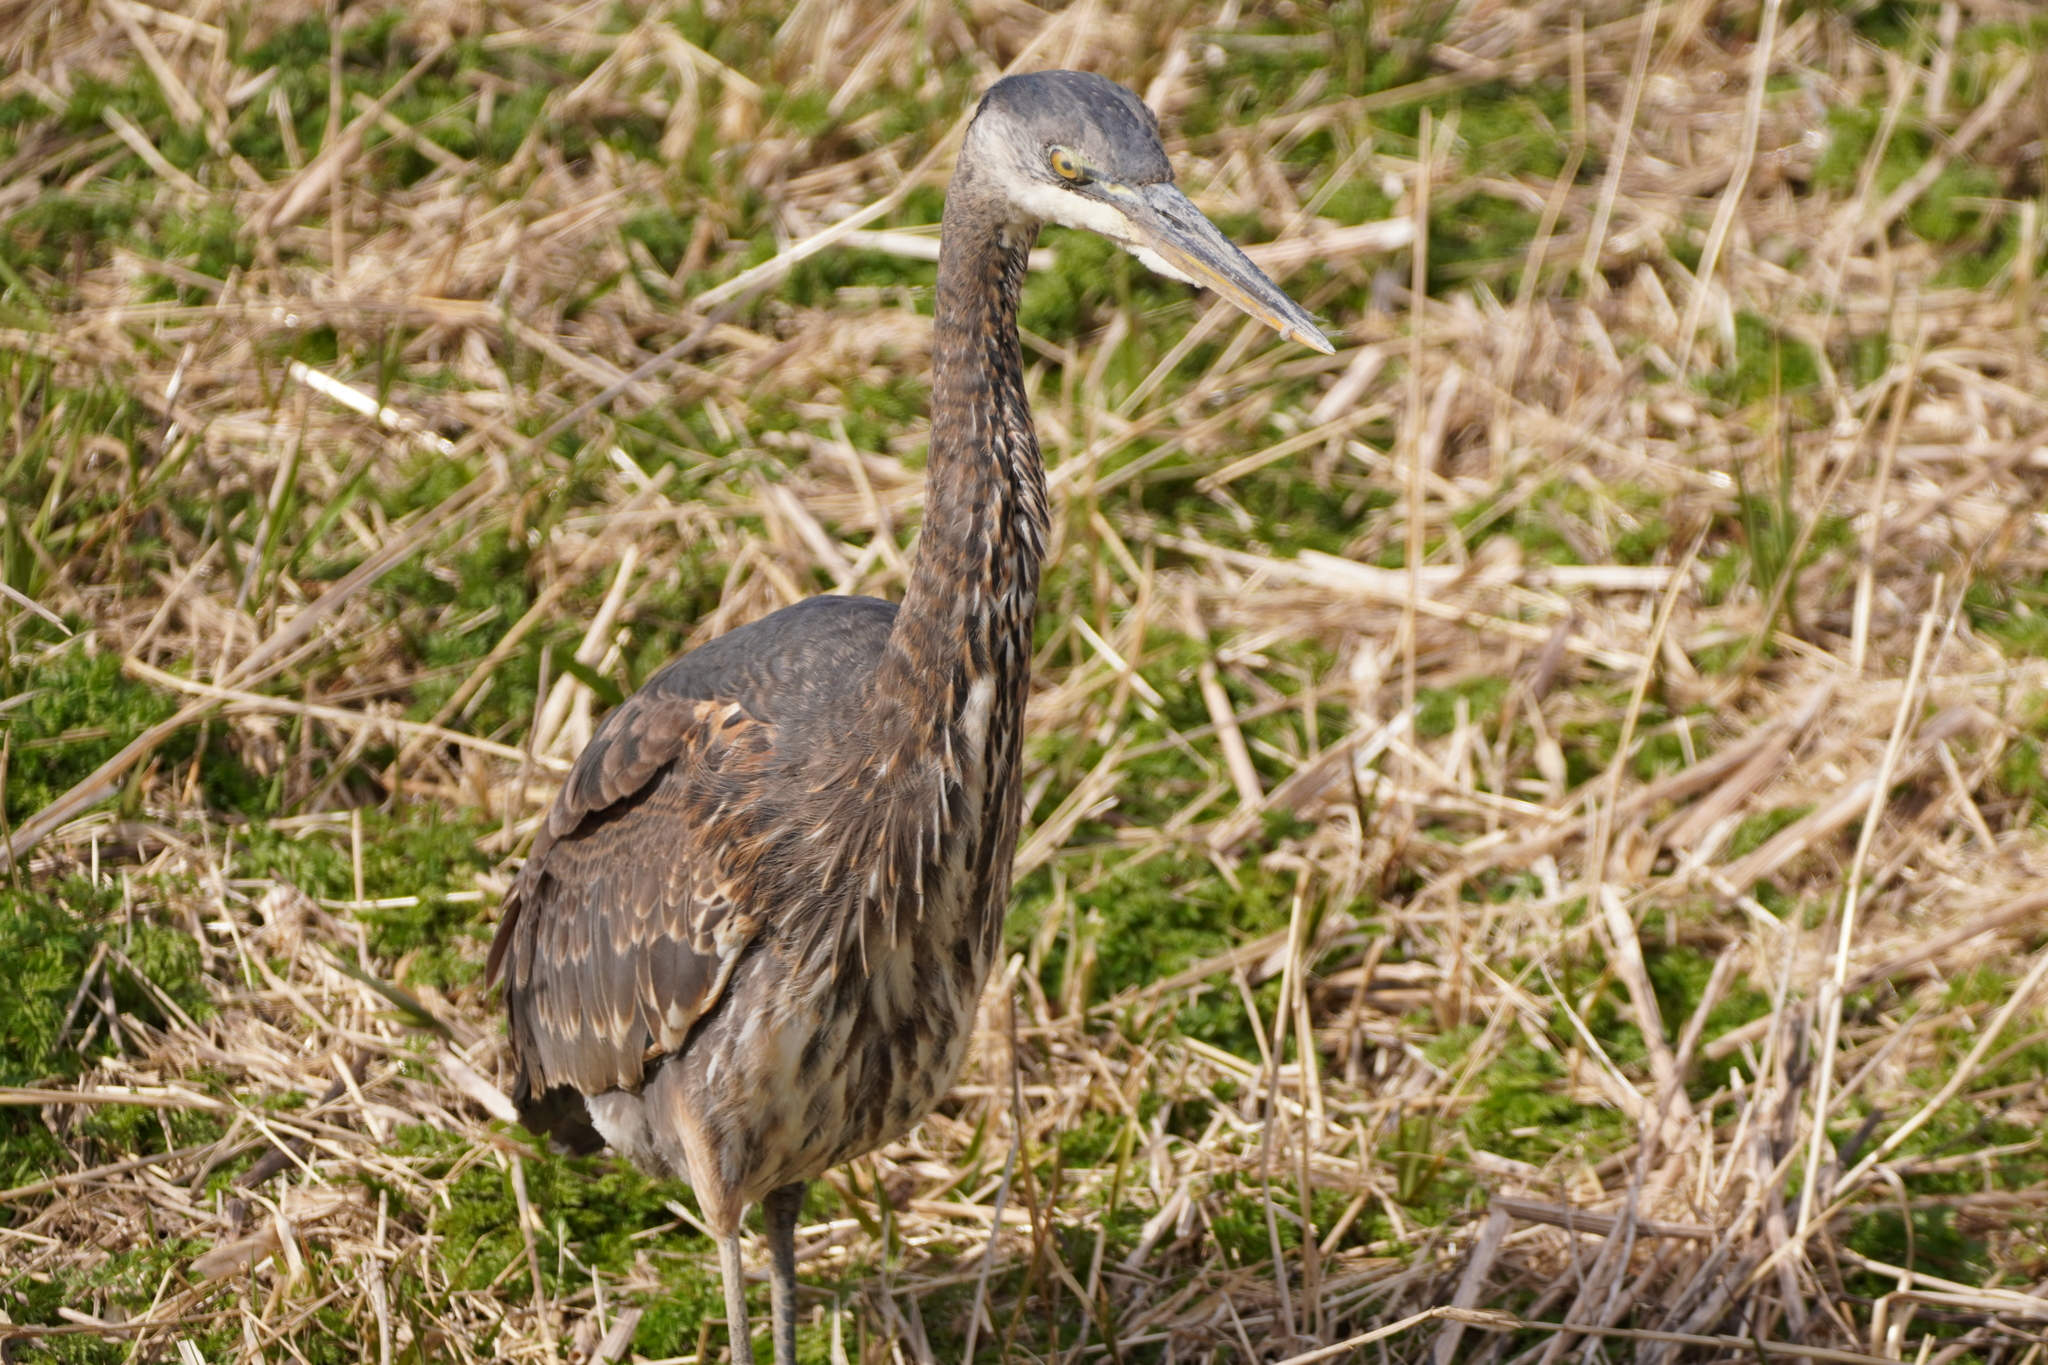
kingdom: Animalia
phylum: Chordata
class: Aves
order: Pelecaniformes
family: Ardeidae
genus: Ardea
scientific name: Ardea herodias
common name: Great blue heron
